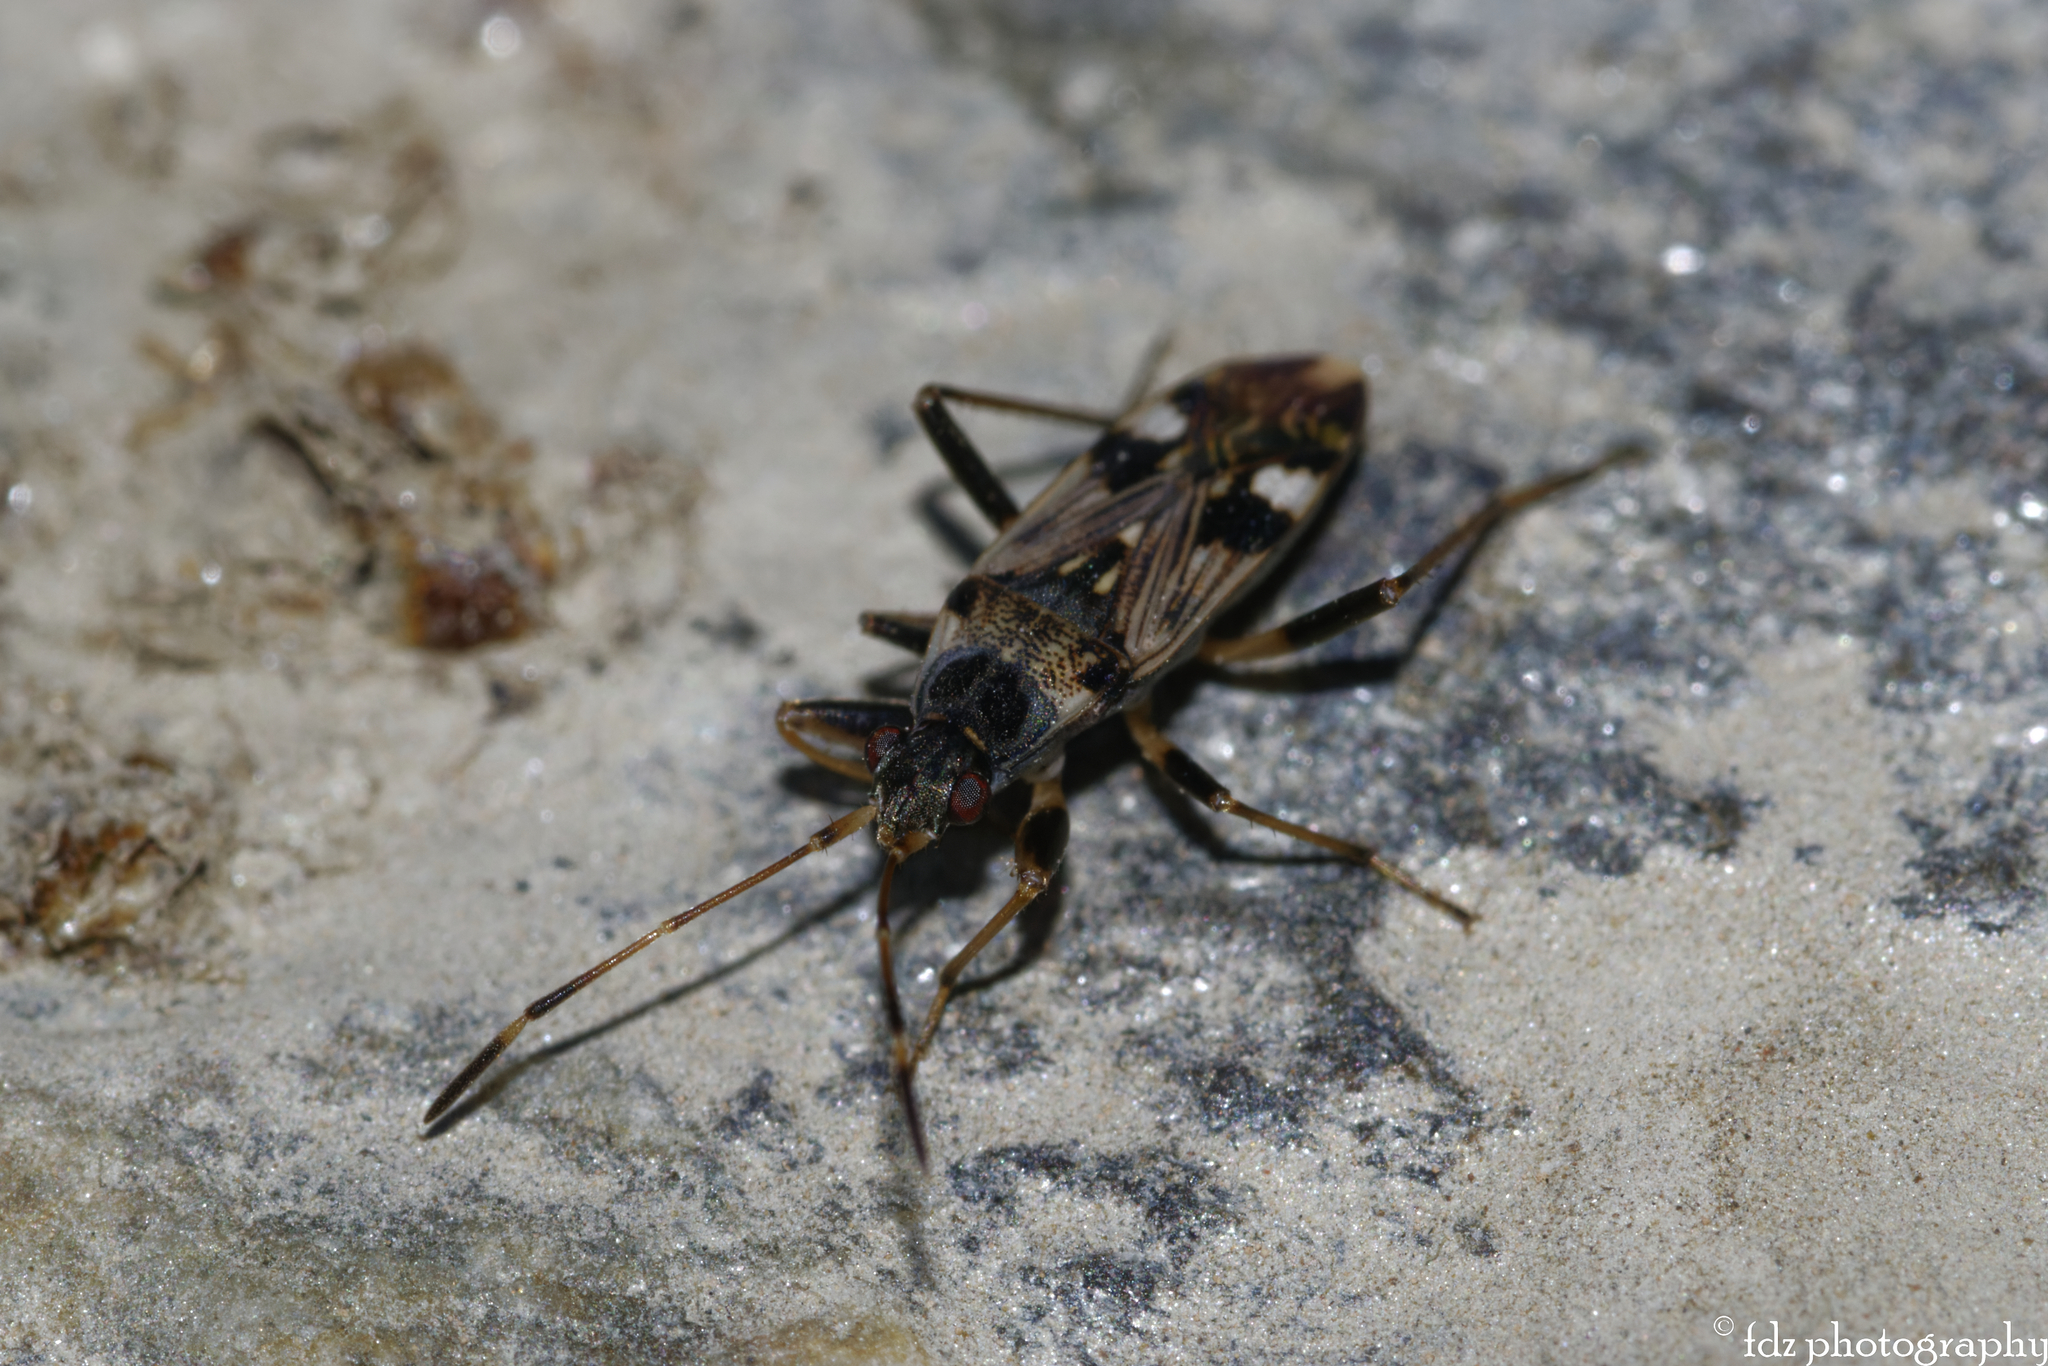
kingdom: Animalia
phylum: Arthropoda
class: Insecta
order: Hemiptera
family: Rhyparochromidae
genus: Beosus
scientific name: Beosus maritimus
